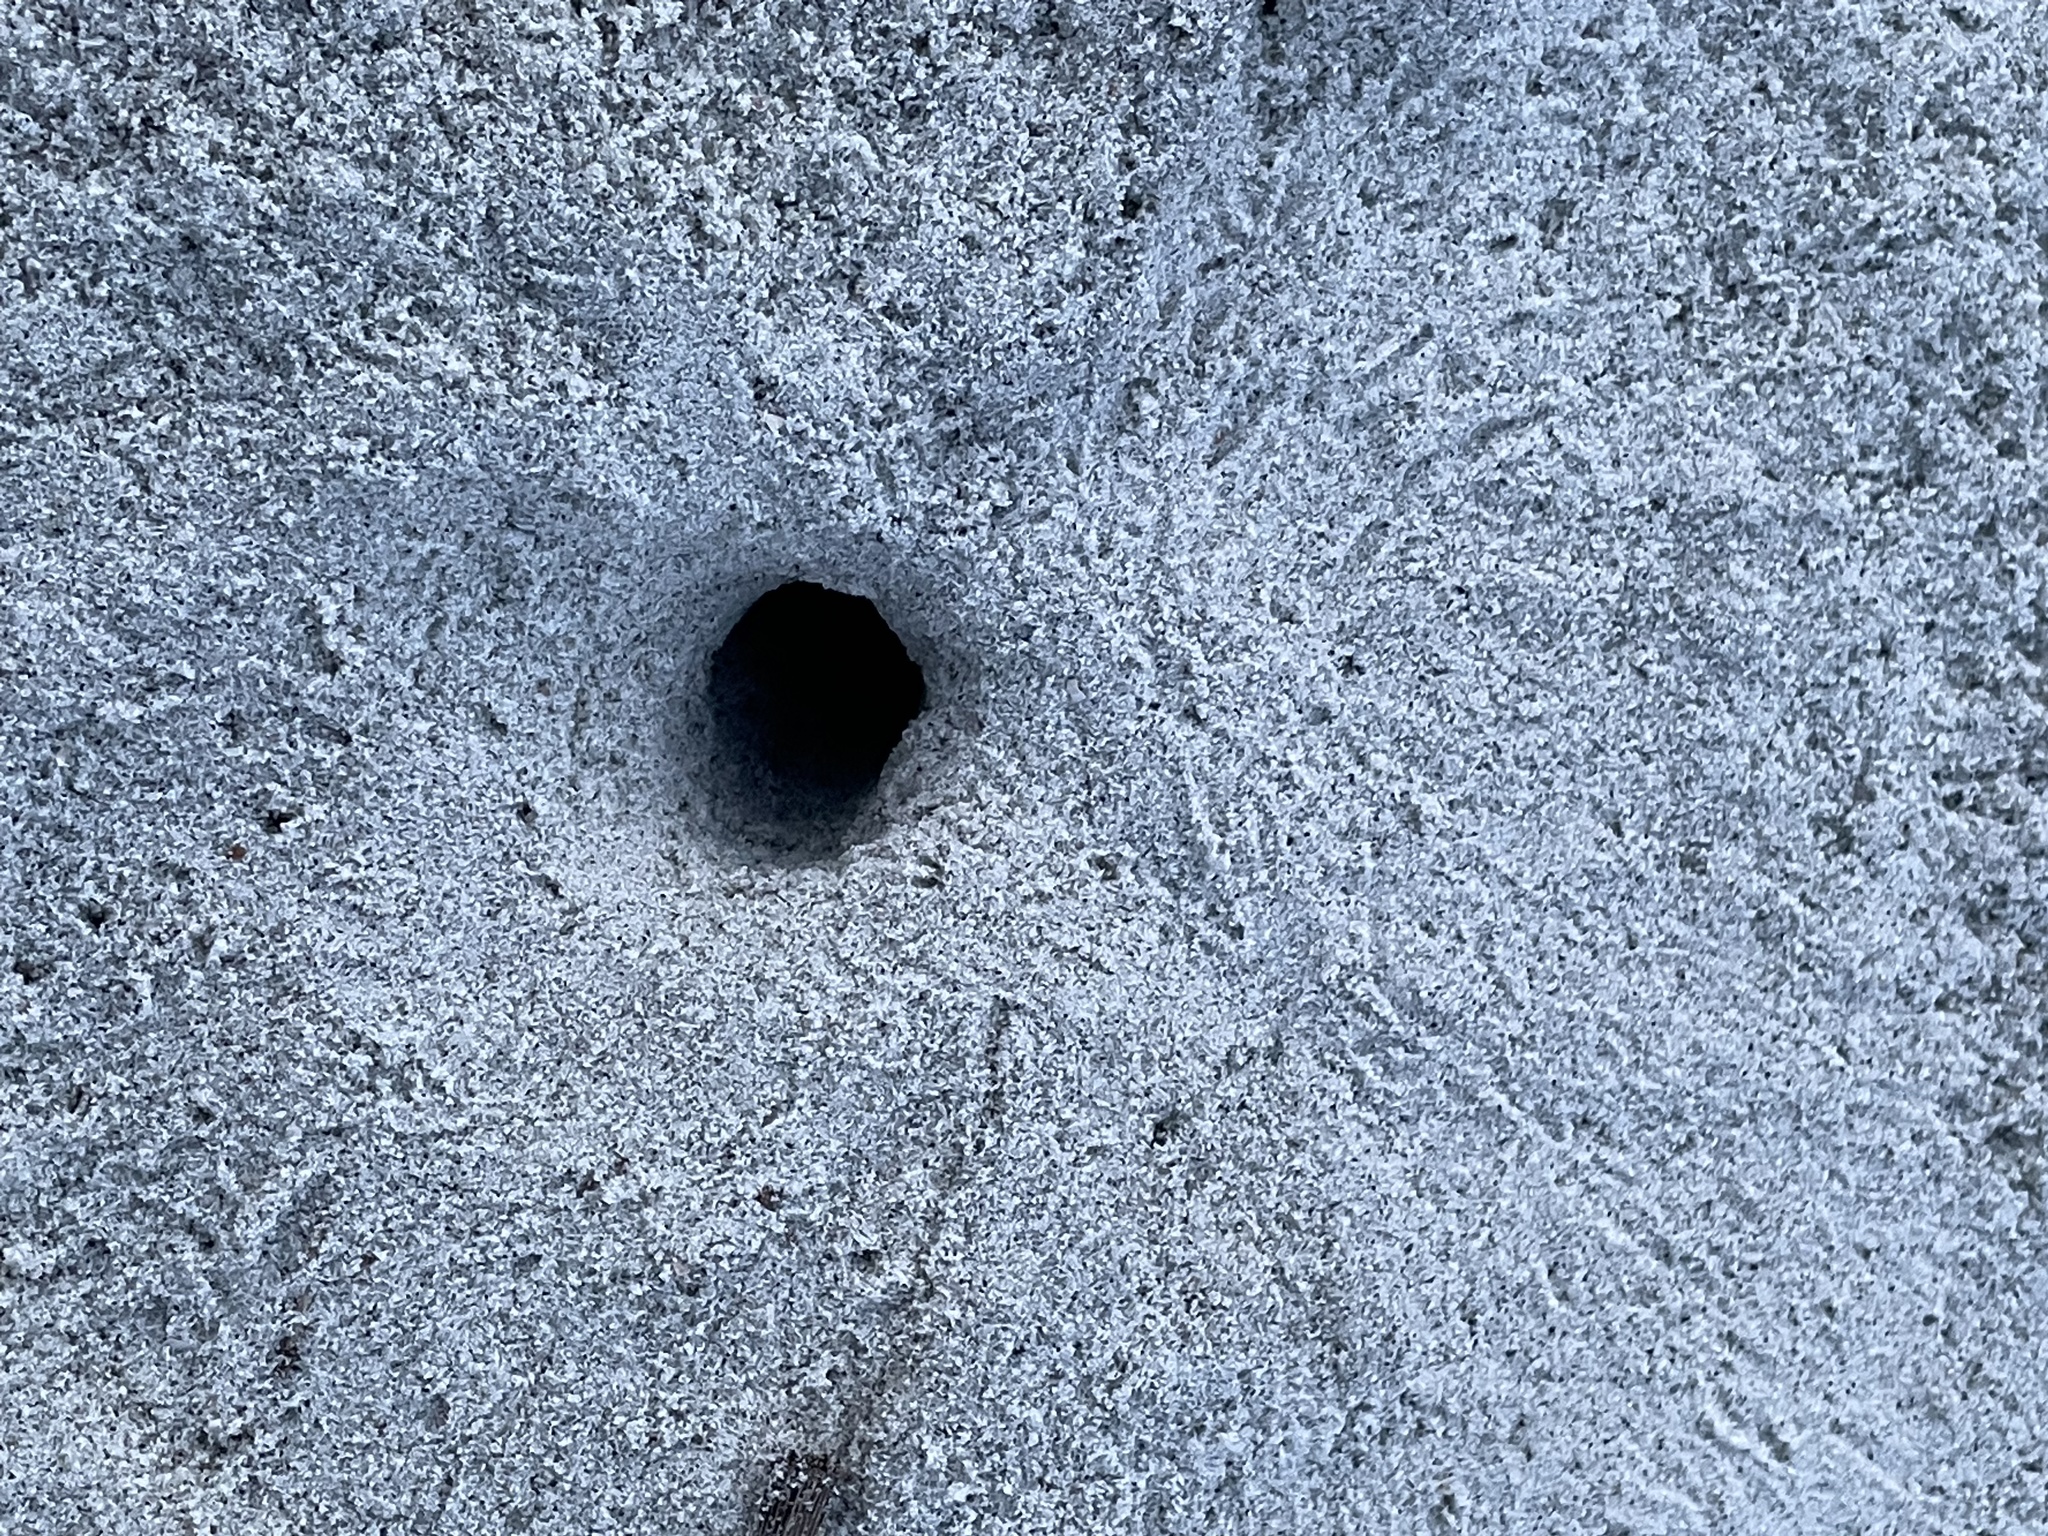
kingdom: Animalia
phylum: Arthropoda
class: Malacostraca
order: Decapoda
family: Ocypodidae
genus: Ocypode
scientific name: Ocypode quadrata
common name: Ghost crab
